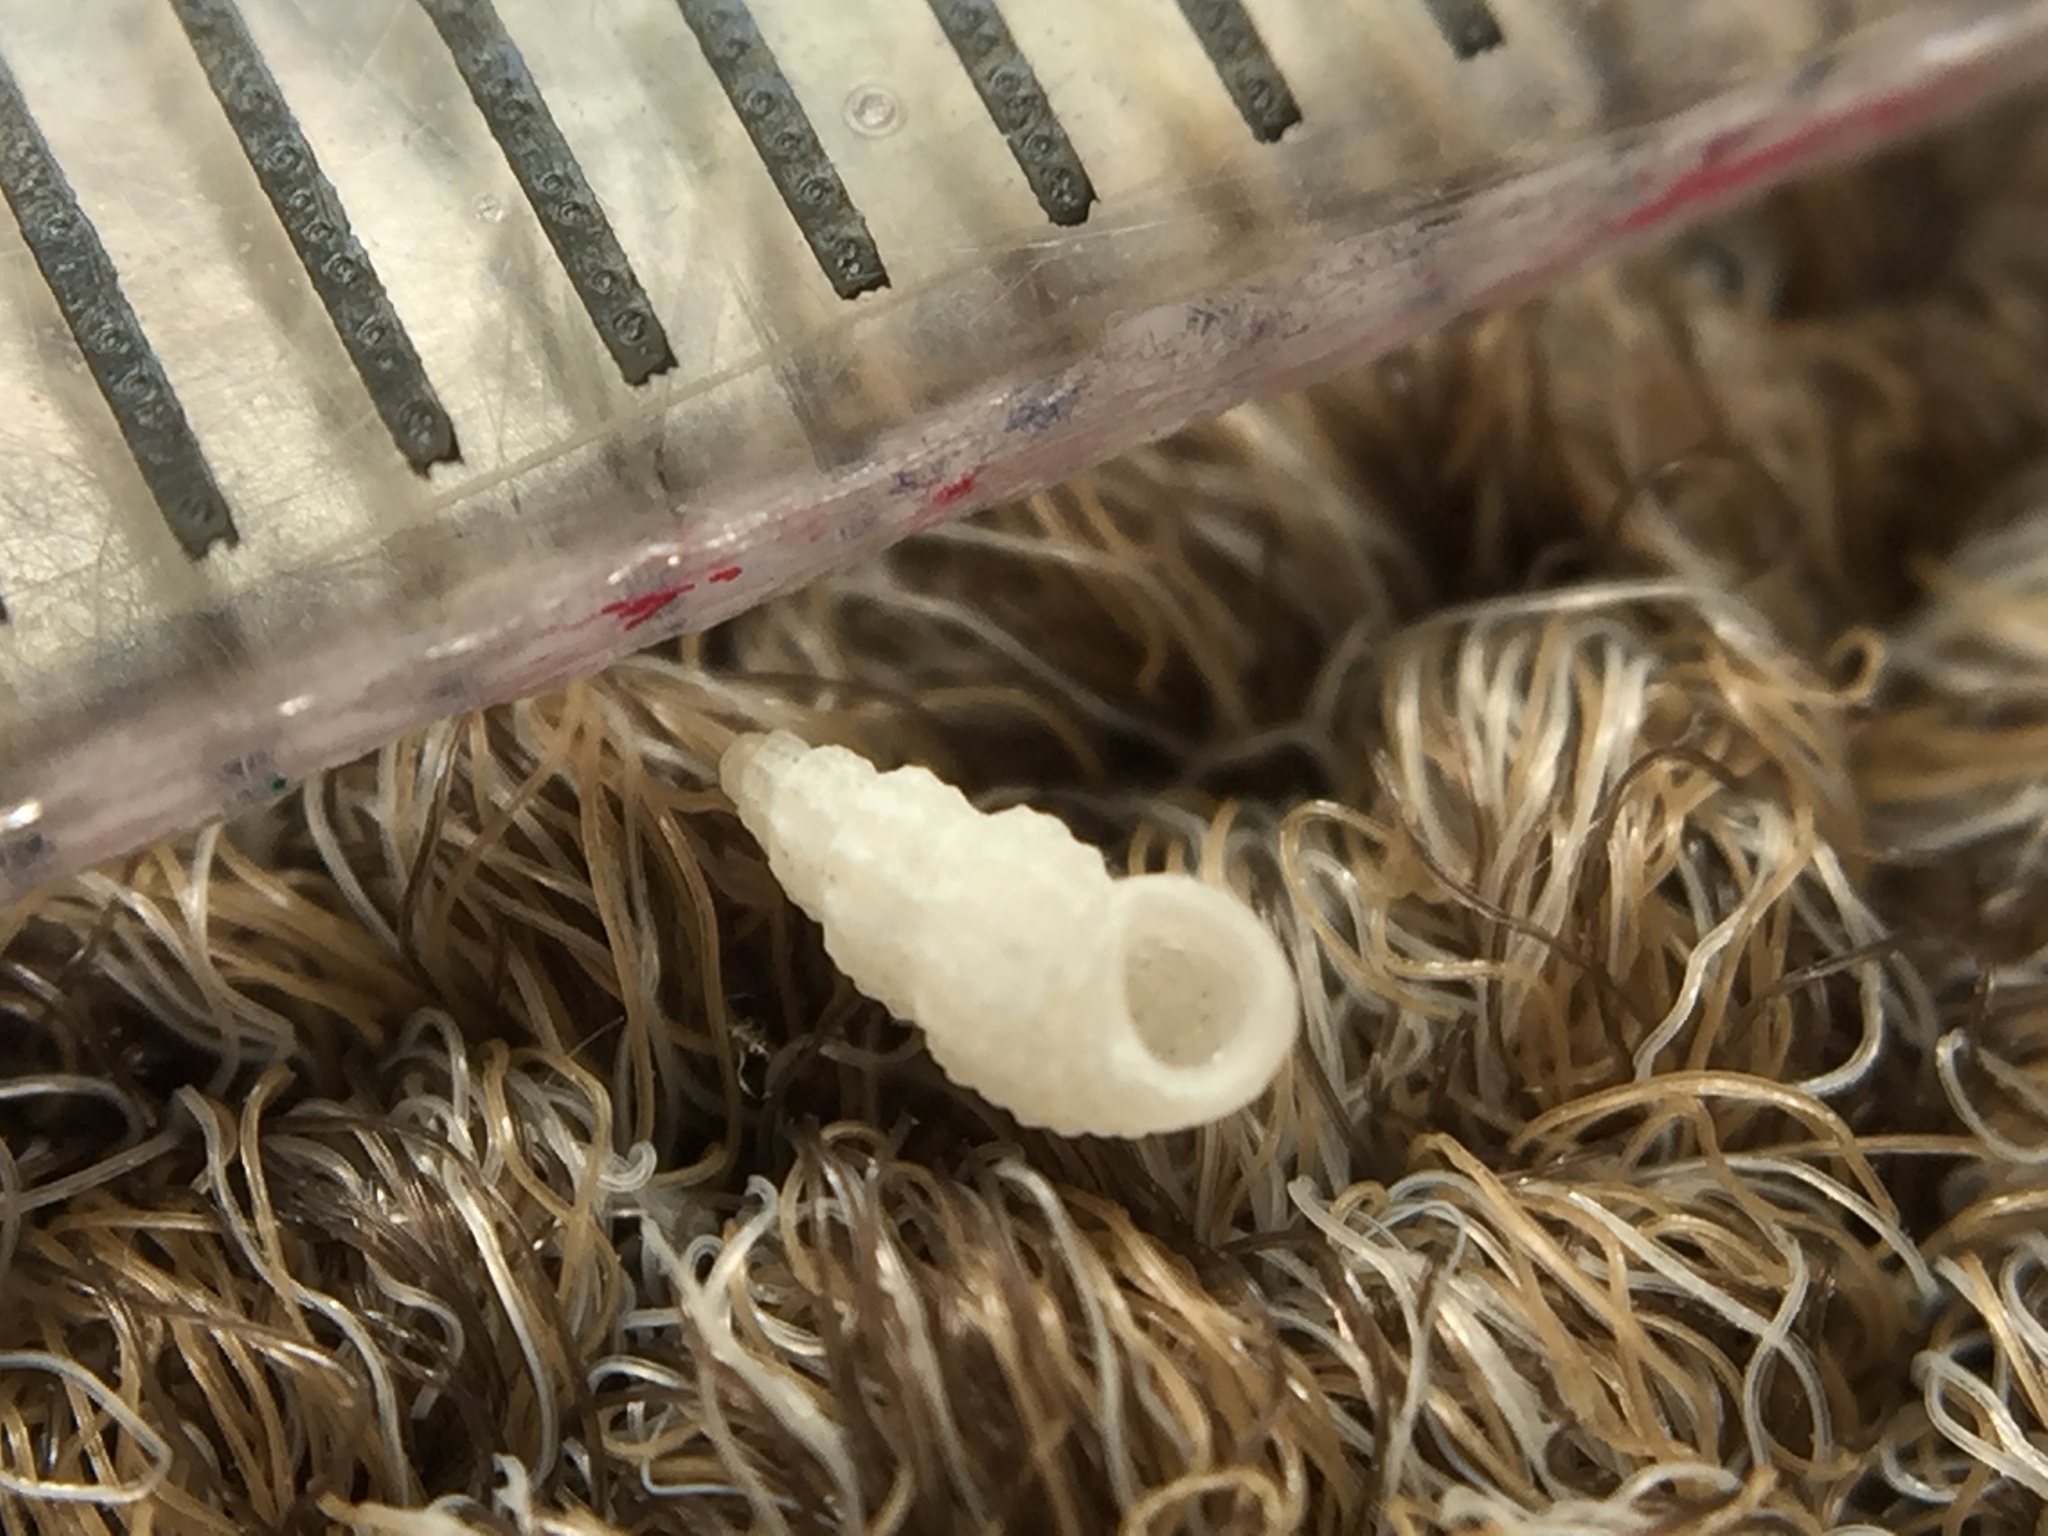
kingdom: Animalia
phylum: Mollusca
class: Gastropoda
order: Littorinimorpha
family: Rissoidae
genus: Simulamerelina
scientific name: Simulamerelina gemmata
